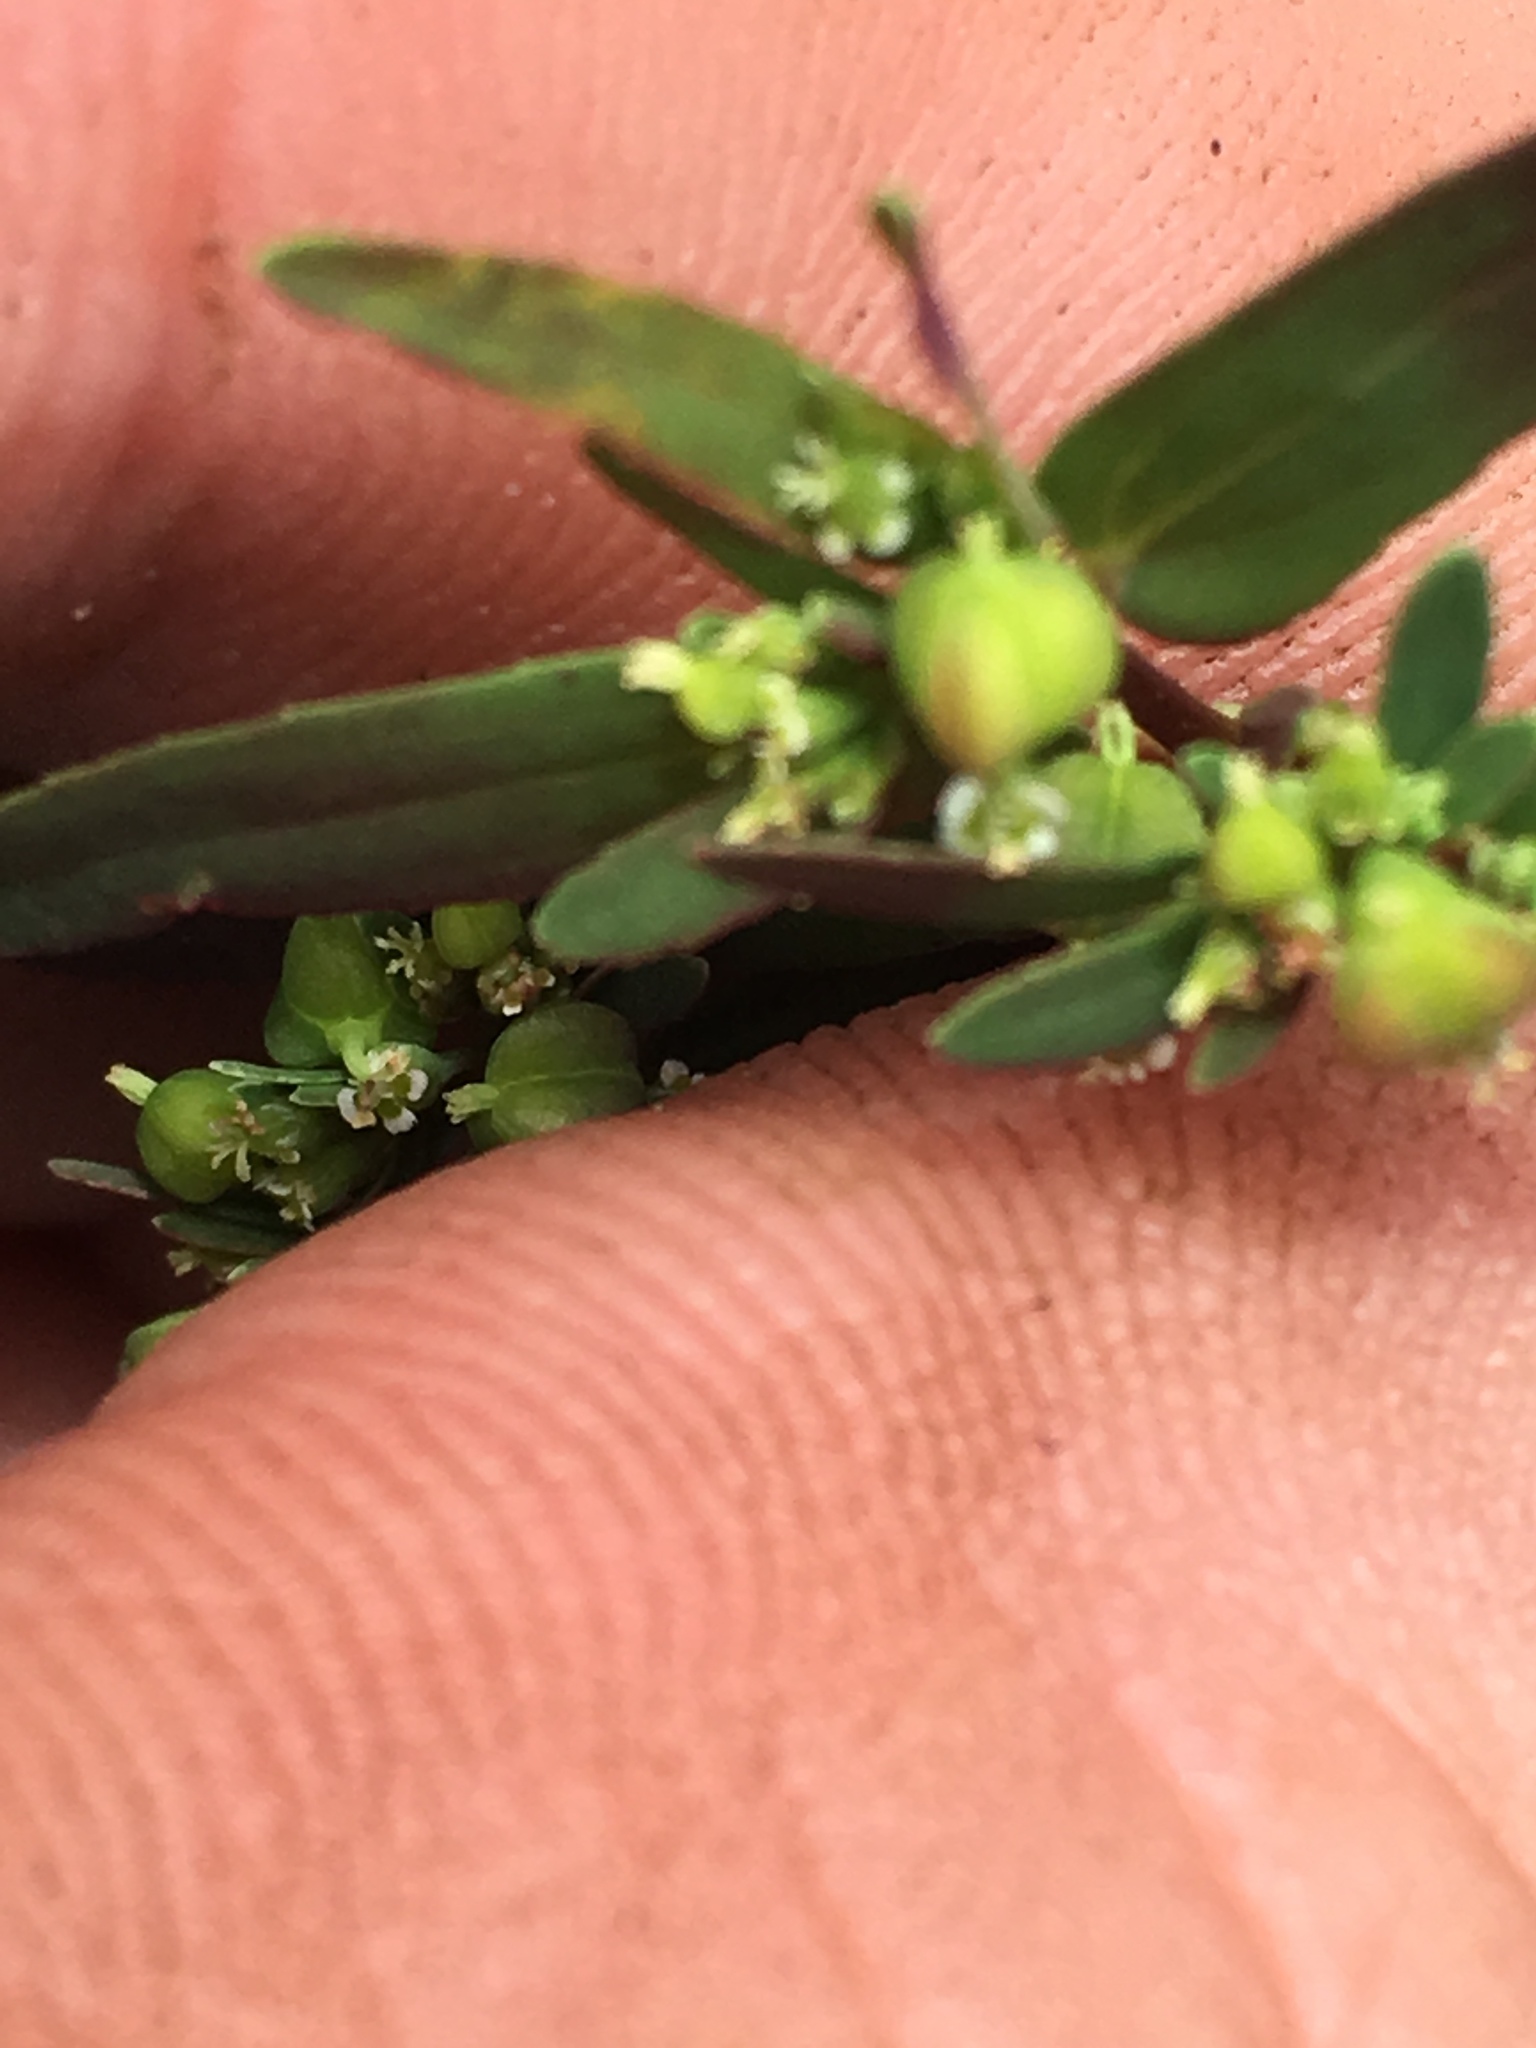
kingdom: Plantae
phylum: Tracheophyta
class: Magnoliopsida
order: Malpighiales
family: Euphorbiaceae
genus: Euphorbia
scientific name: Euphorbia nutans
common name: Eyebane
